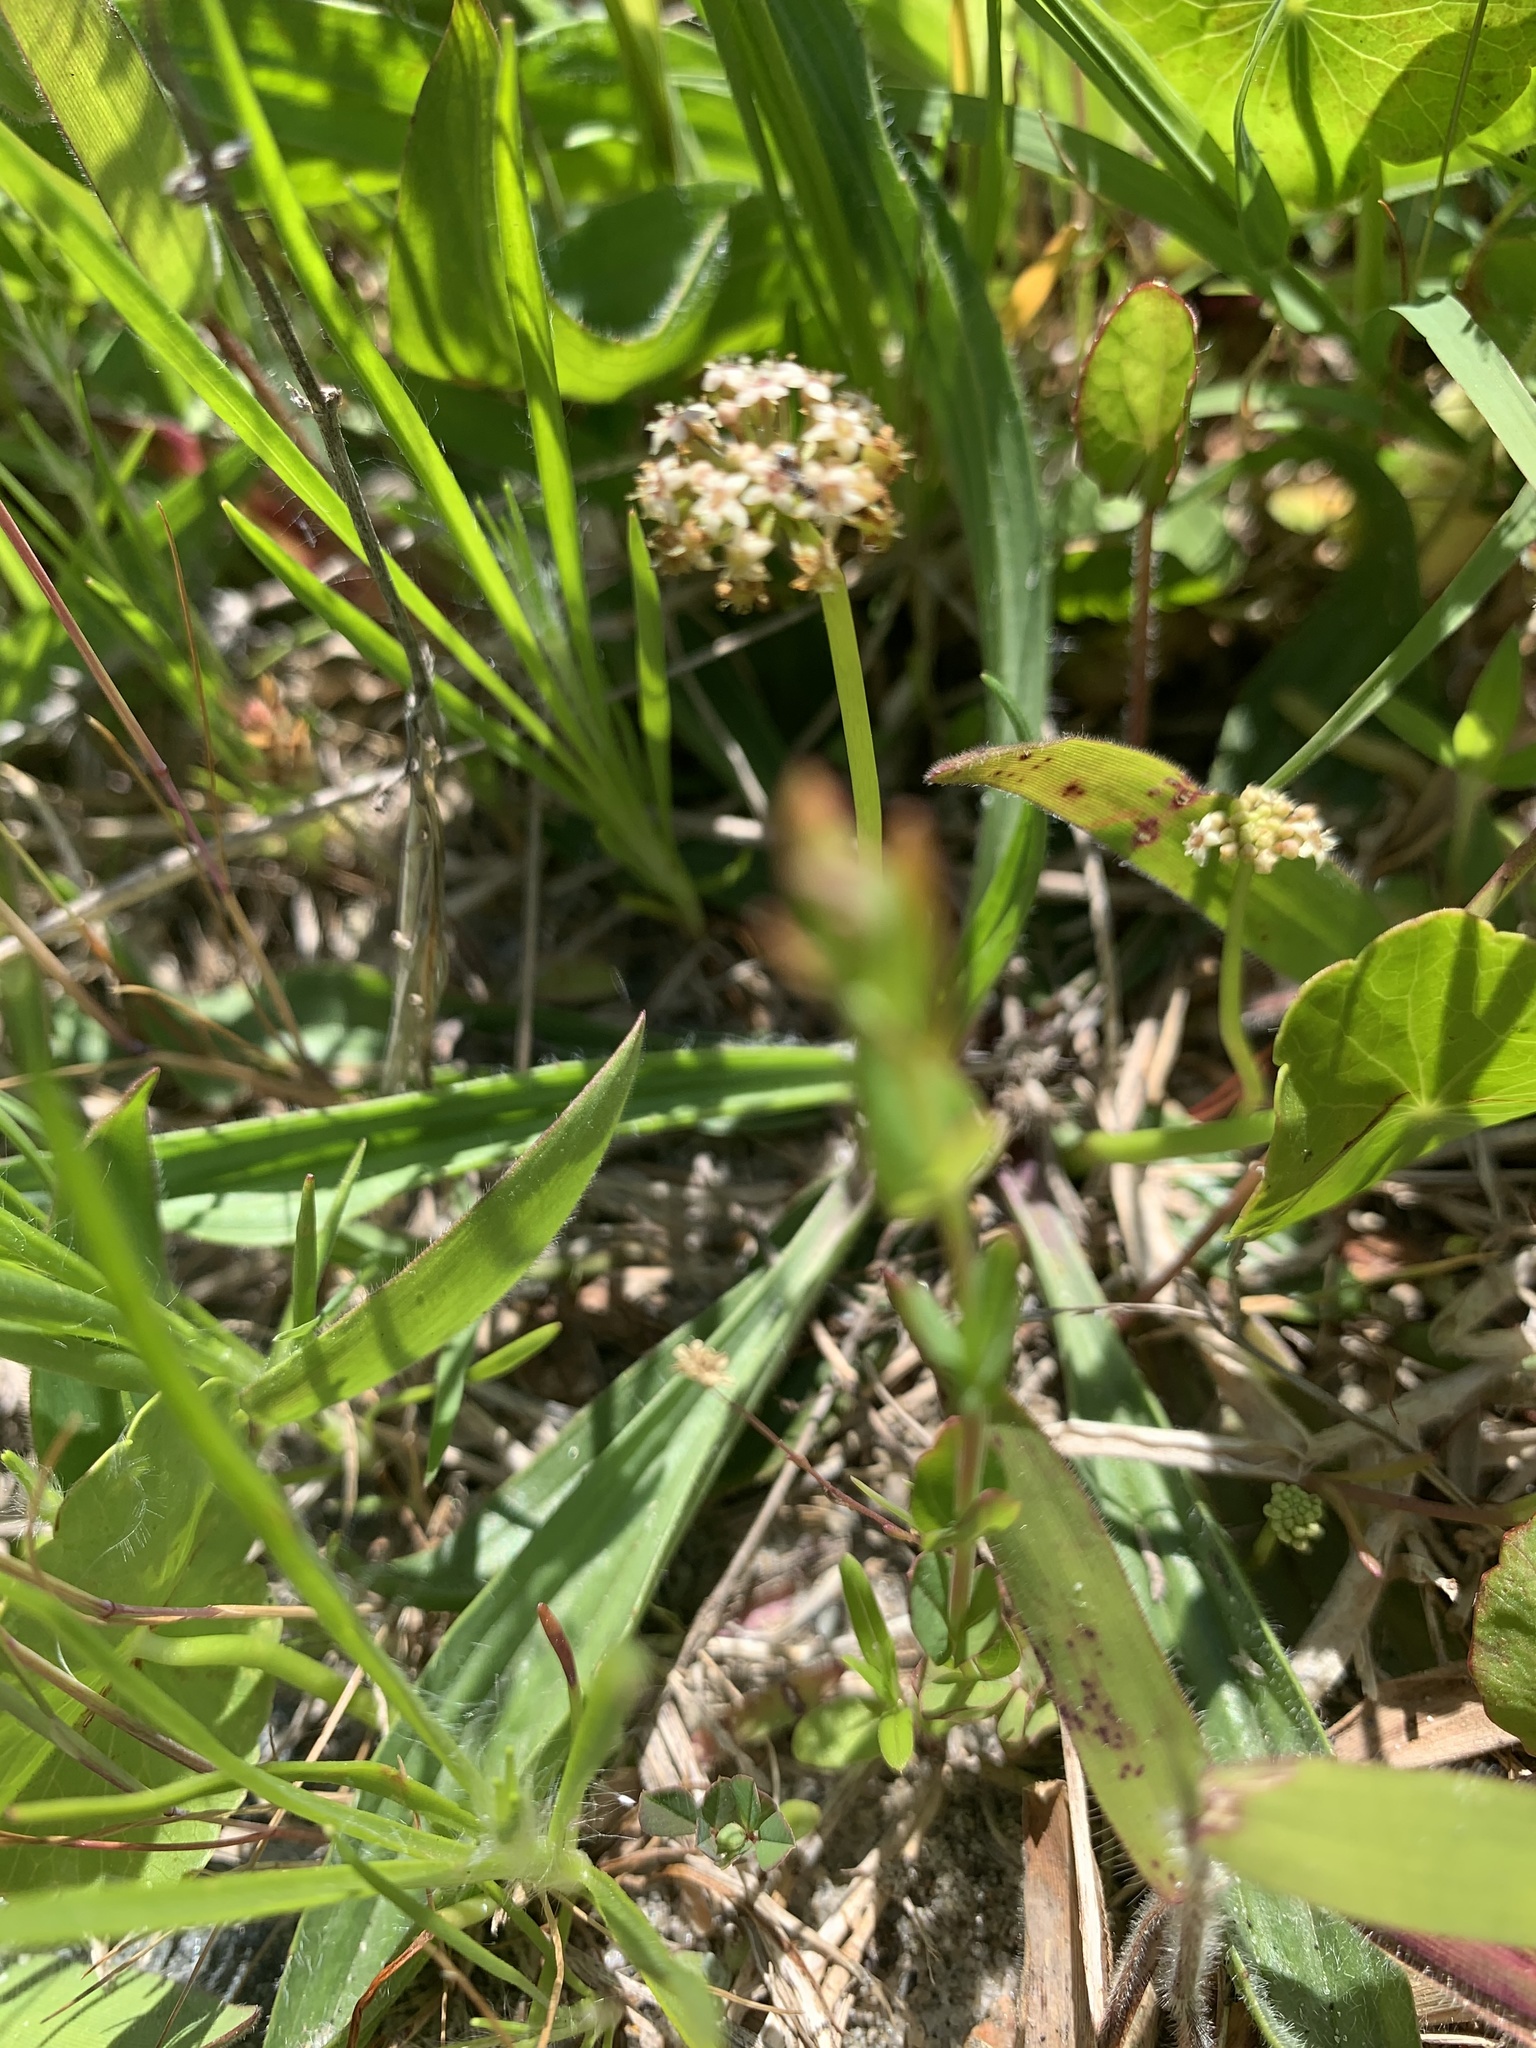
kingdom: Plantae
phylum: Tracheophyta
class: Magnoliopsida
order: Apiales
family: Araliaceae
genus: Hydrocotyle
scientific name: Hydrocotyle umbellata
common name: Water pennywort
